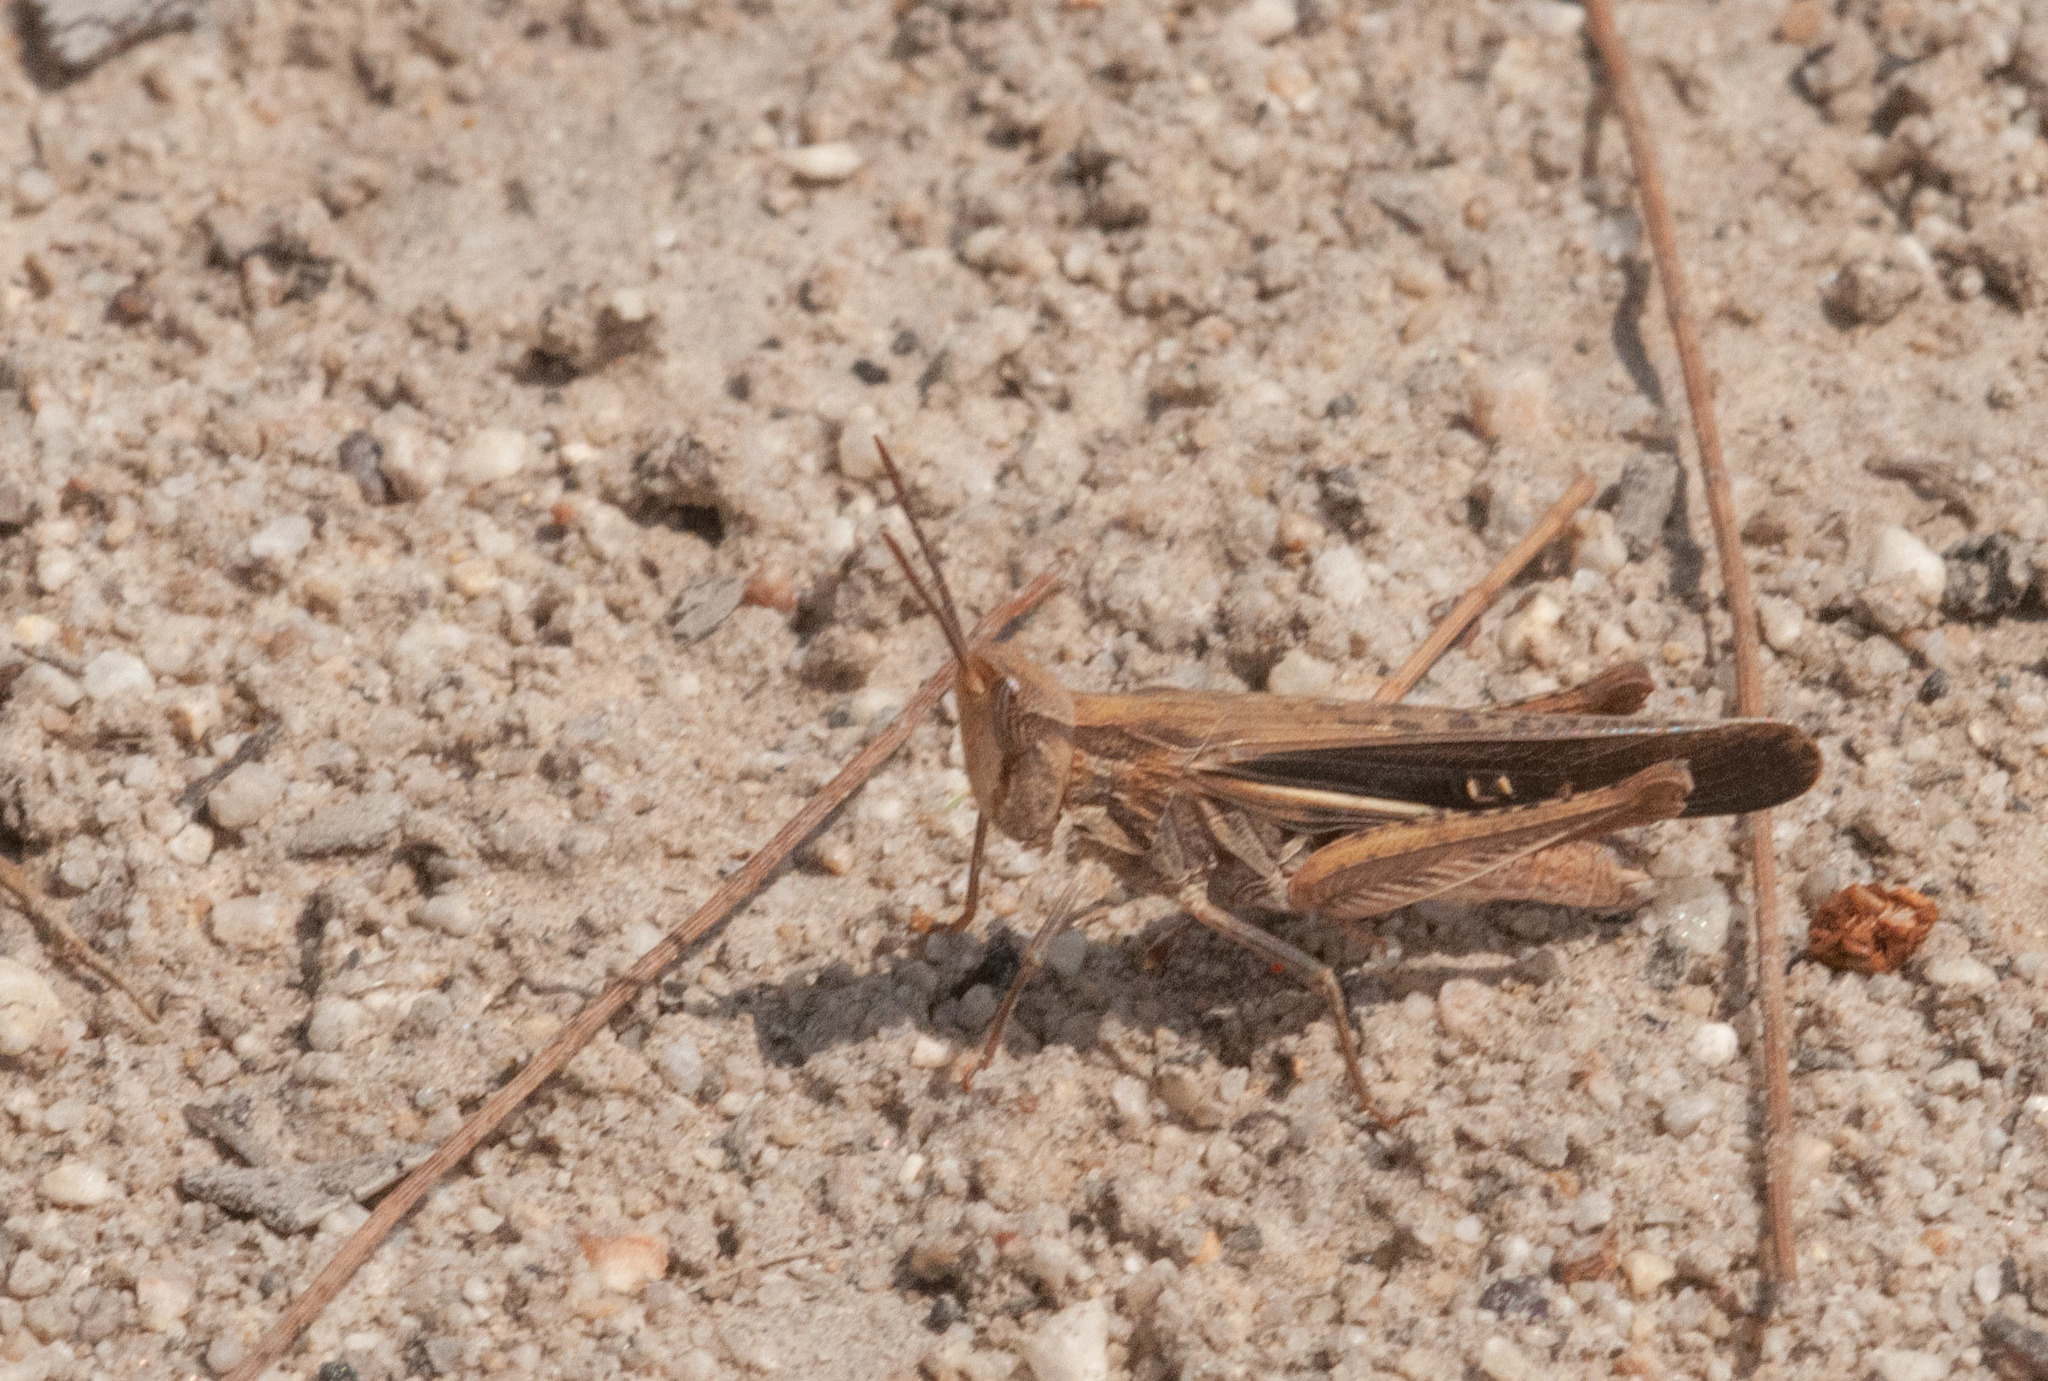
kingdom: Animalia
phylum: Arthropoda
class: Insecta
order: Orthoptera
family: Acrididae
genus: Froggattina
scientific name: Froggattina australis
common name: Froggatt's buzzer
